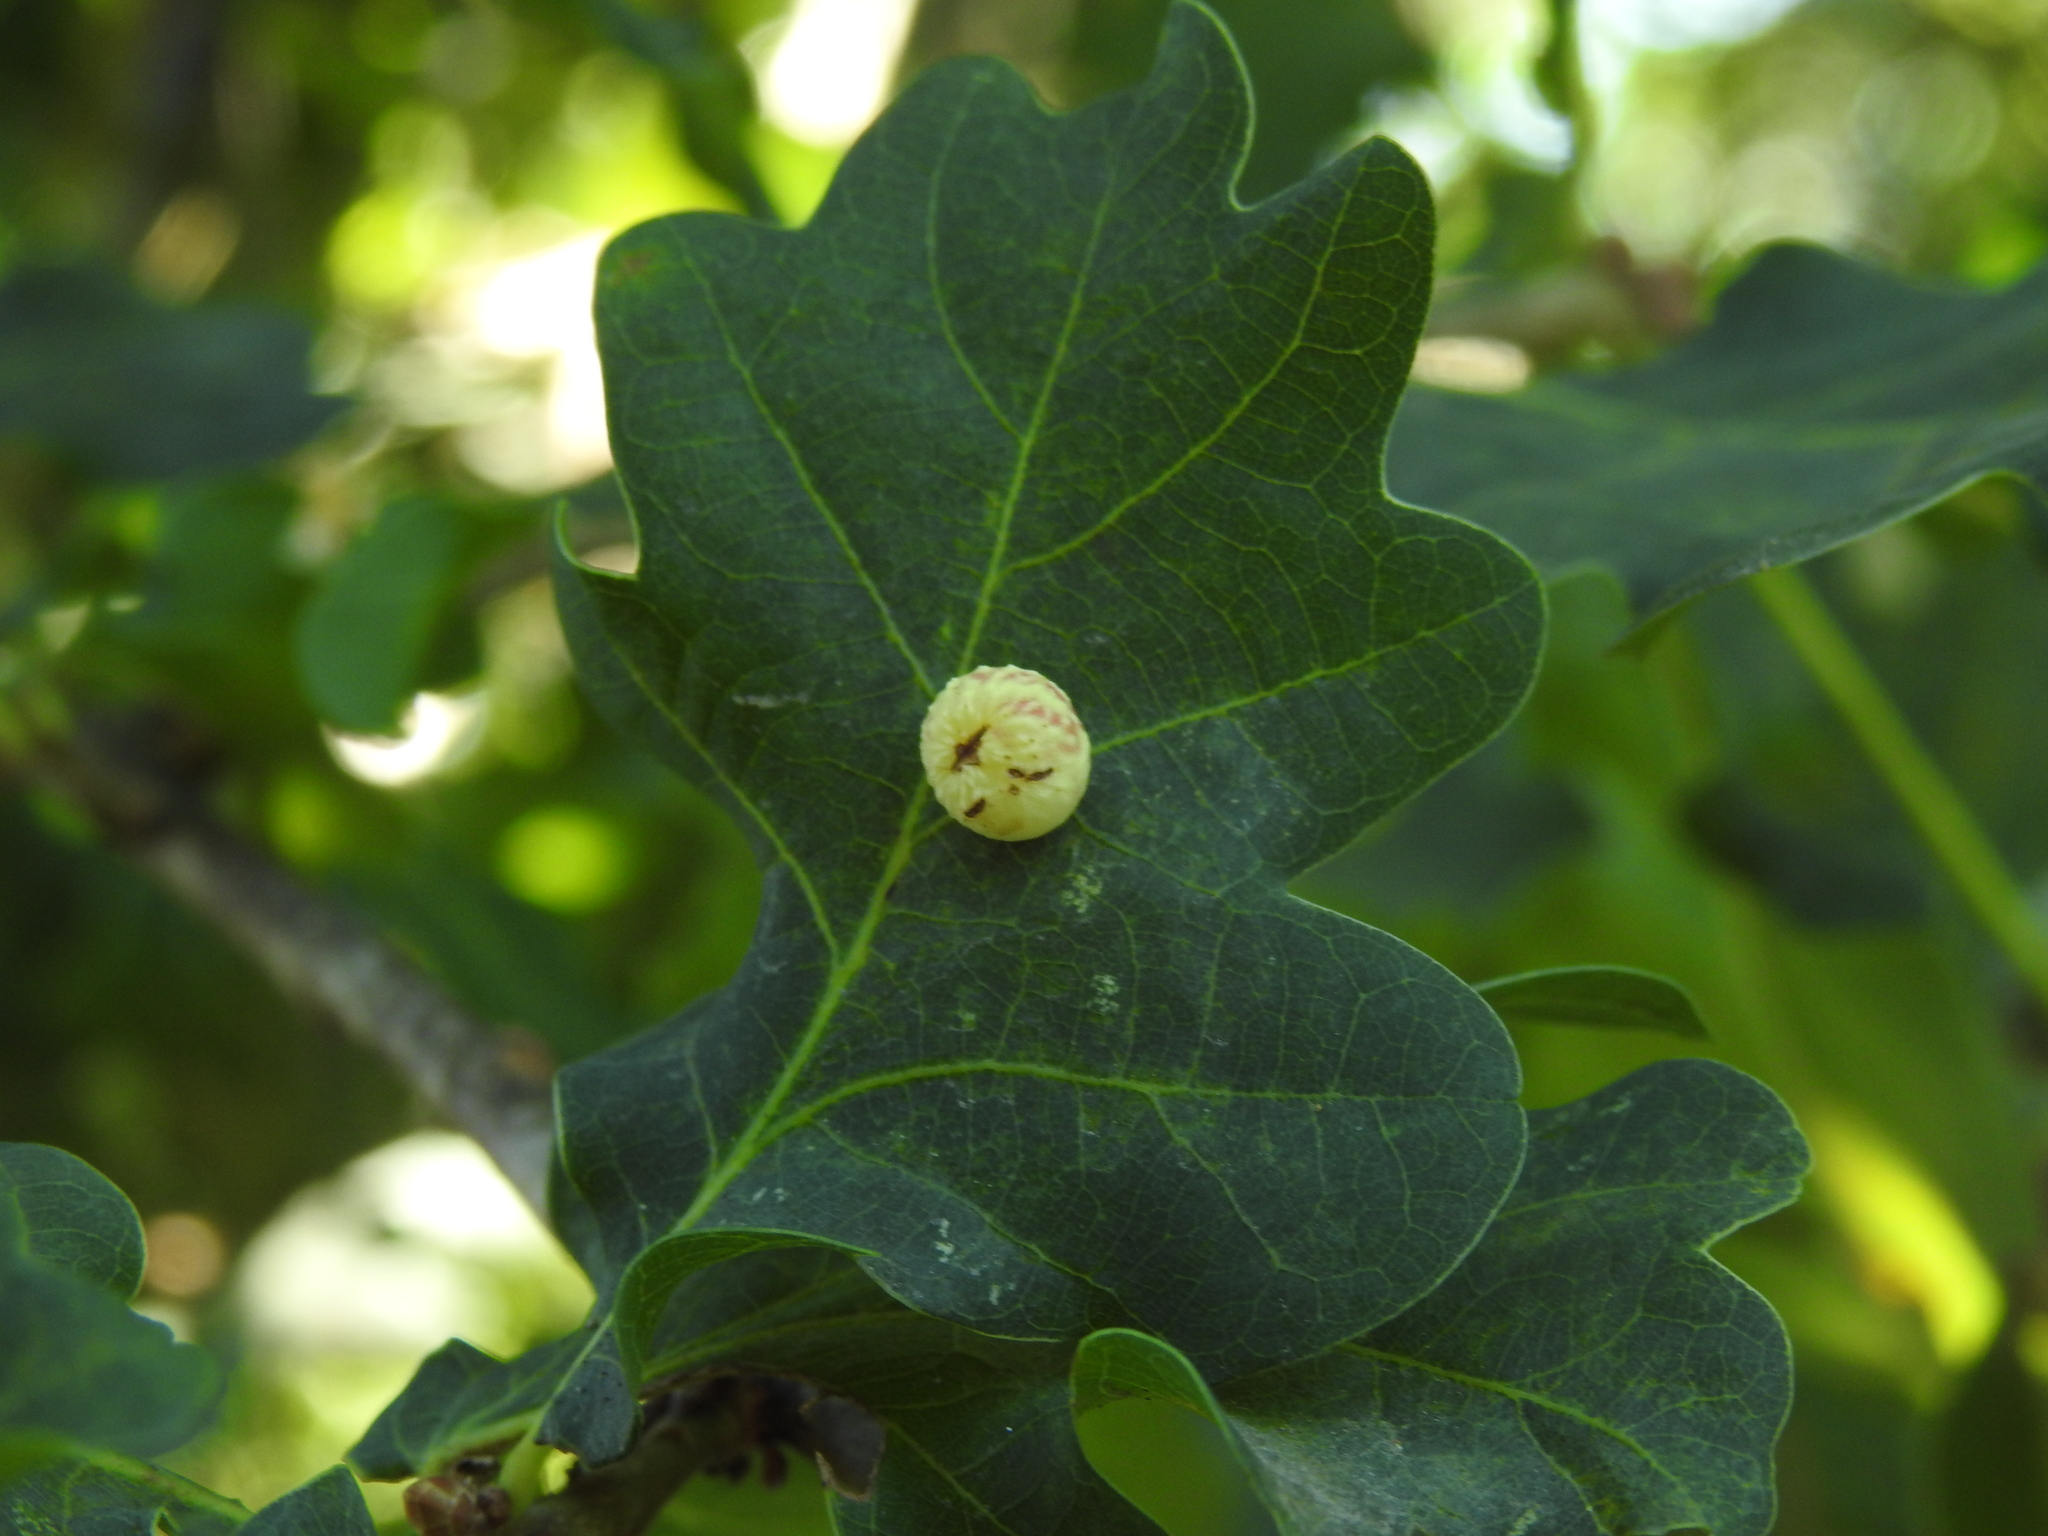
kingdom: Animalia
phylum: Arthropoda
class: Insecta
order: Hymenoptera
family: Cynipidae
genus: Cynips
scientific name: Cynips longiventris
